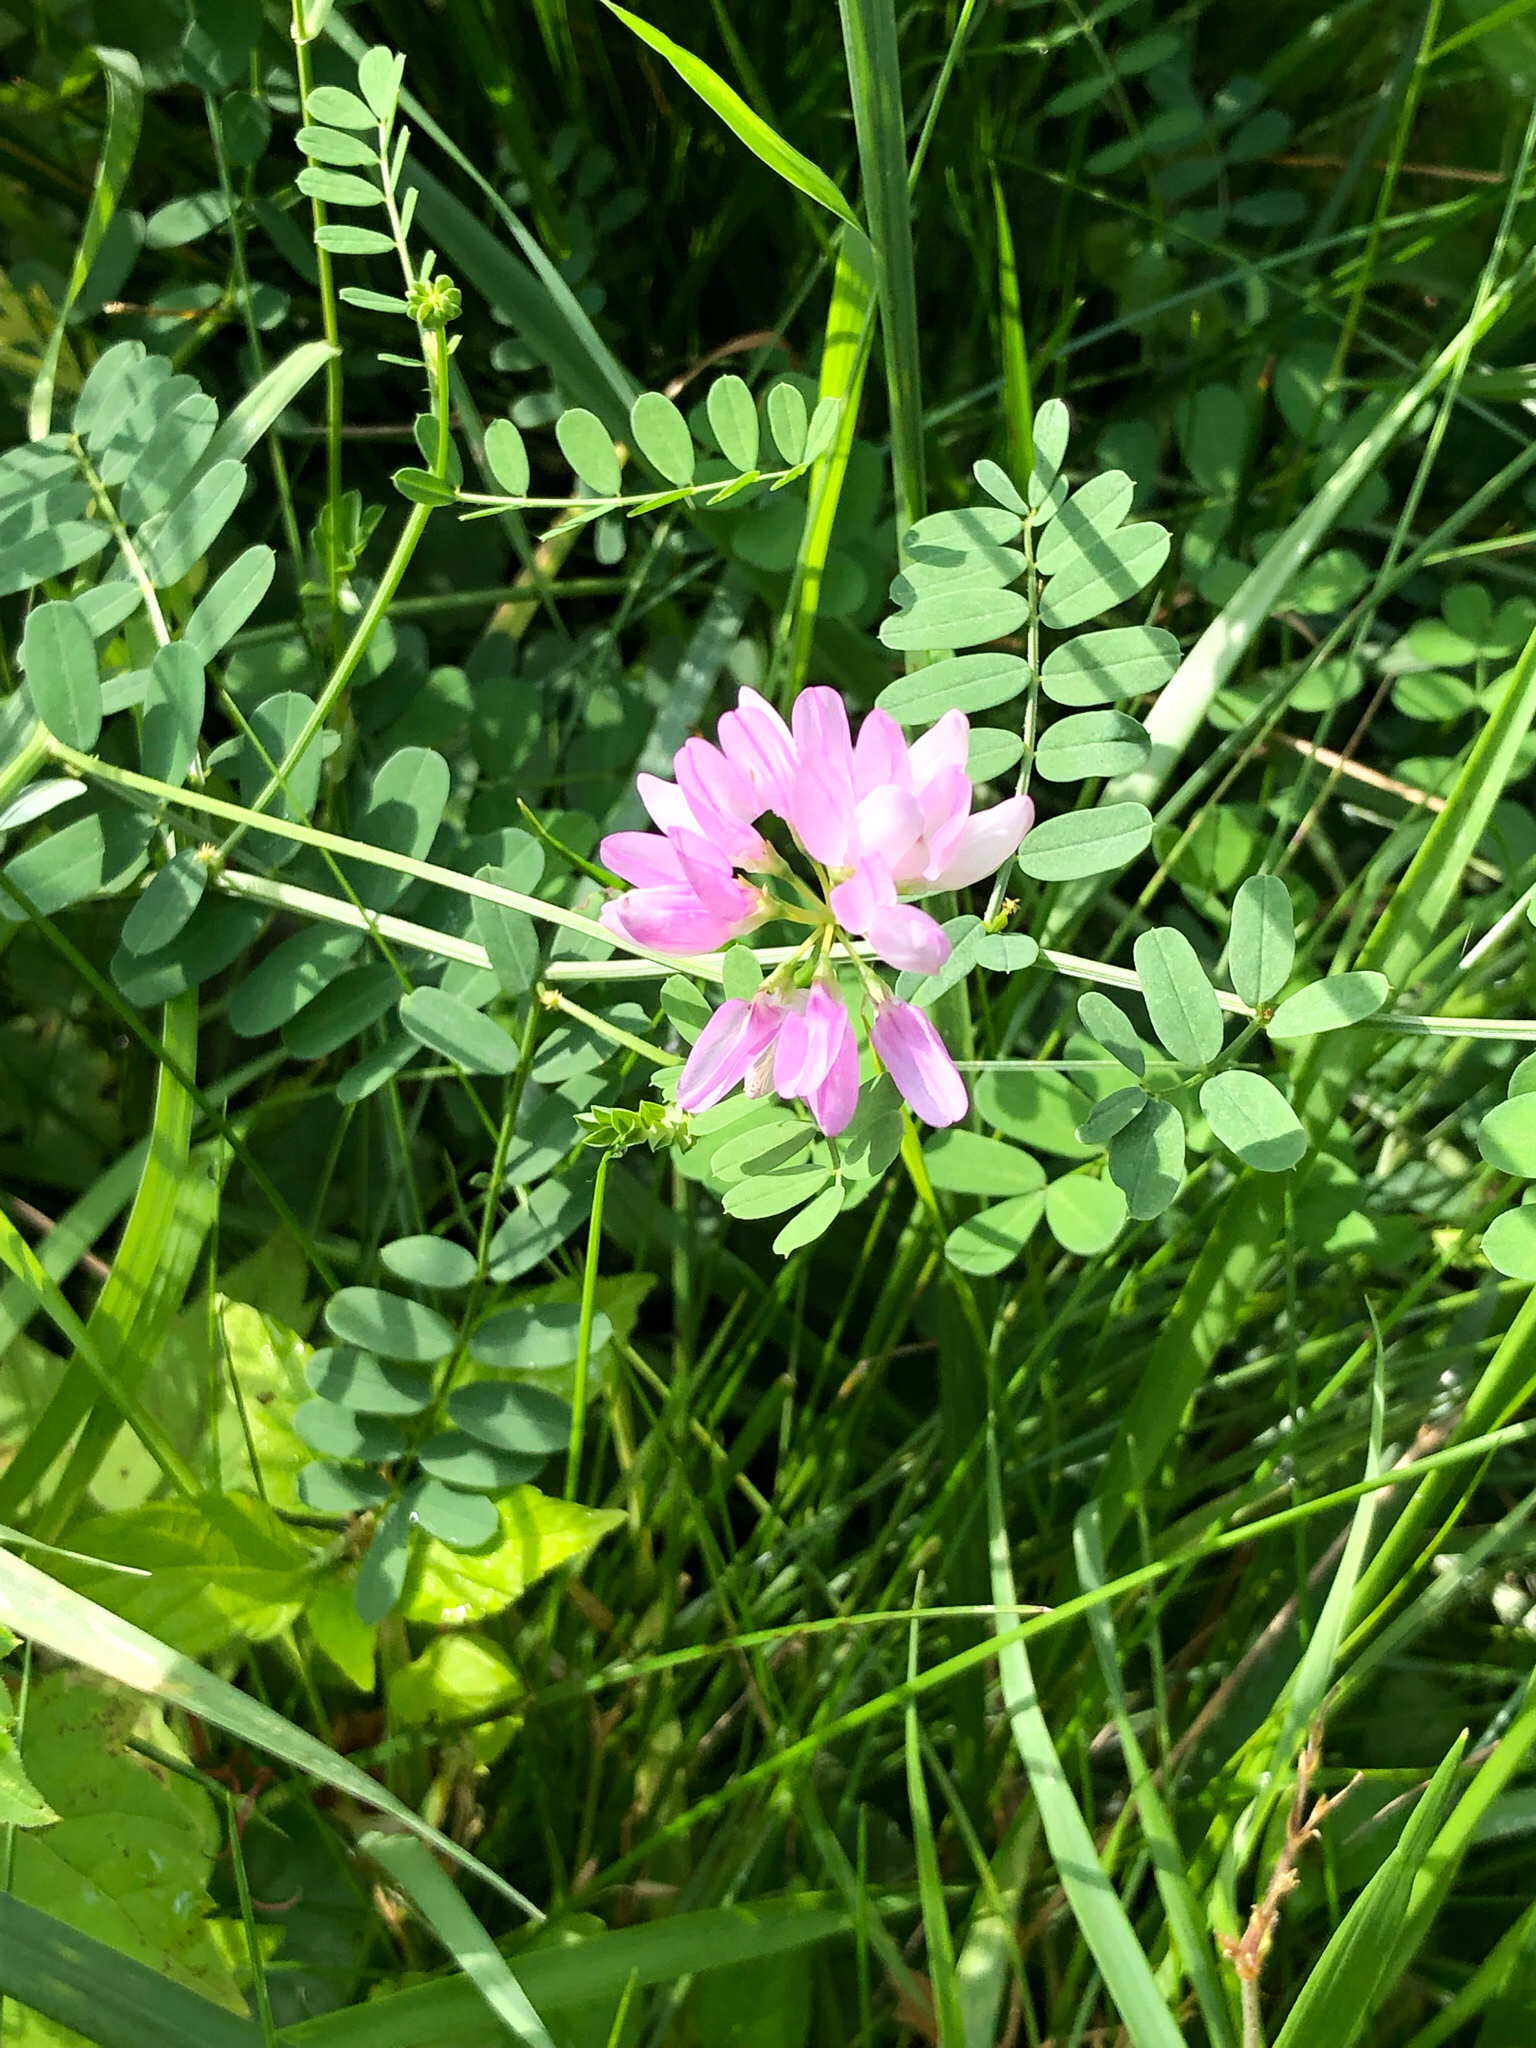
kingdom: Plantae
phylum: Tracheophyta
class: Magnoliopsida
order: Fabales
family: Fabaceae
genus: Coronilla
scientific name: Coronilla varia
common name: Crownvetch
